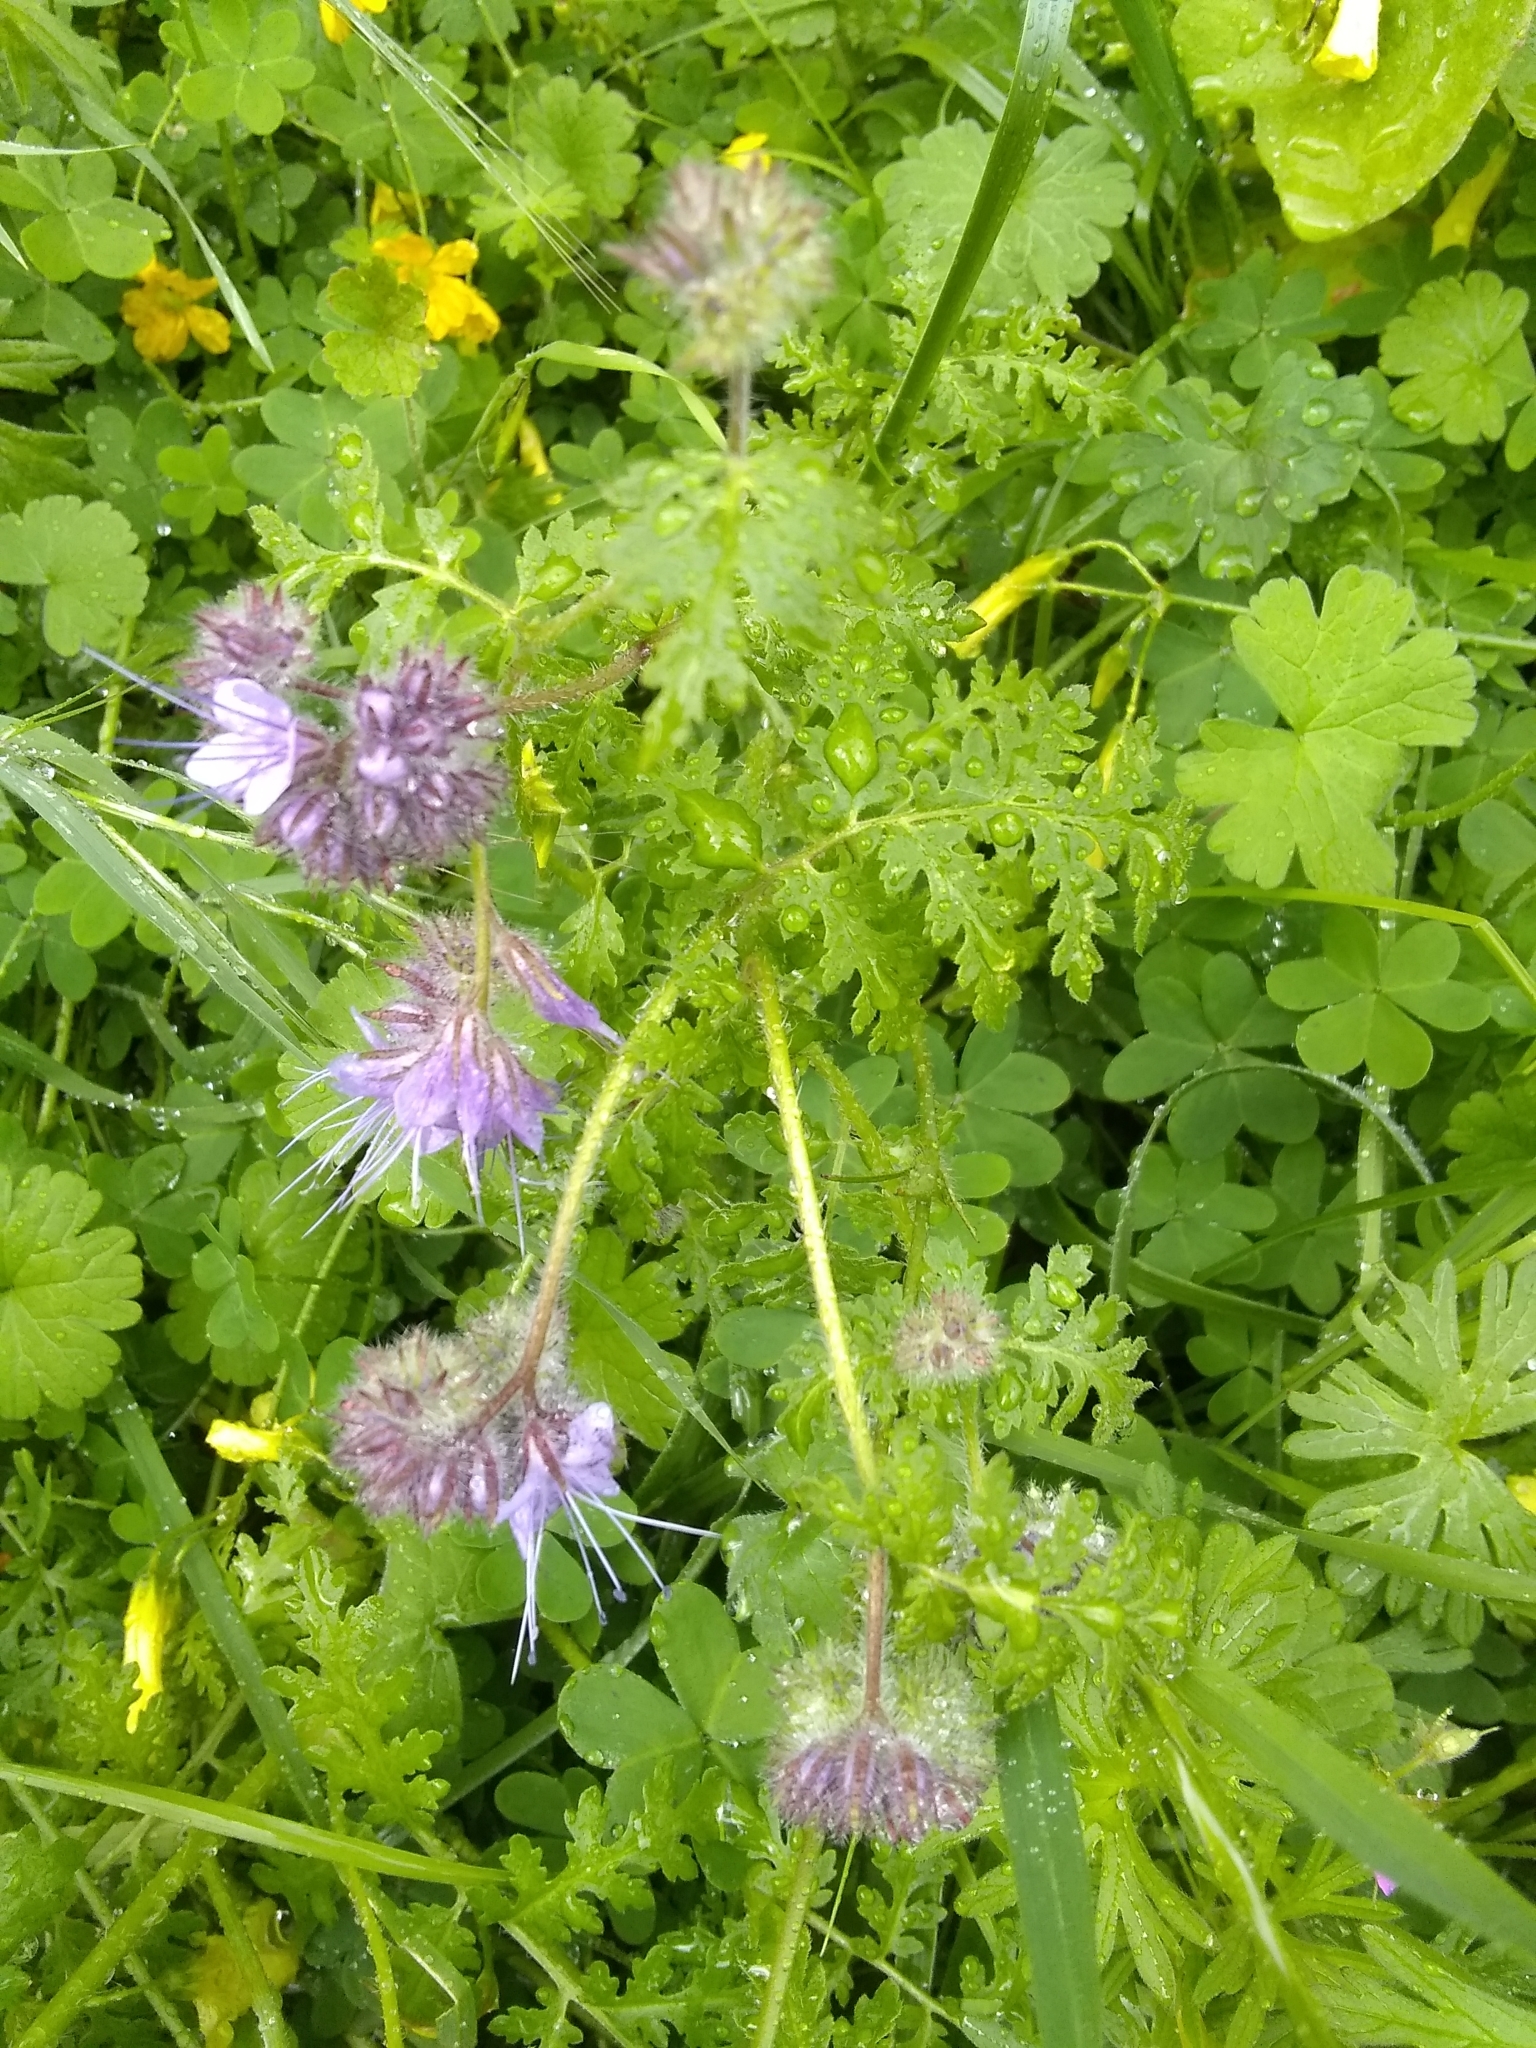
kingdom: Plantae
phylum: Tracheophyta
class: Magnoliopsida
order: Boraginales
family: Hydrophyllaceae
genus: Phacelia
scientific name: Phacelia tanacetifolia
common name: Phacelia
